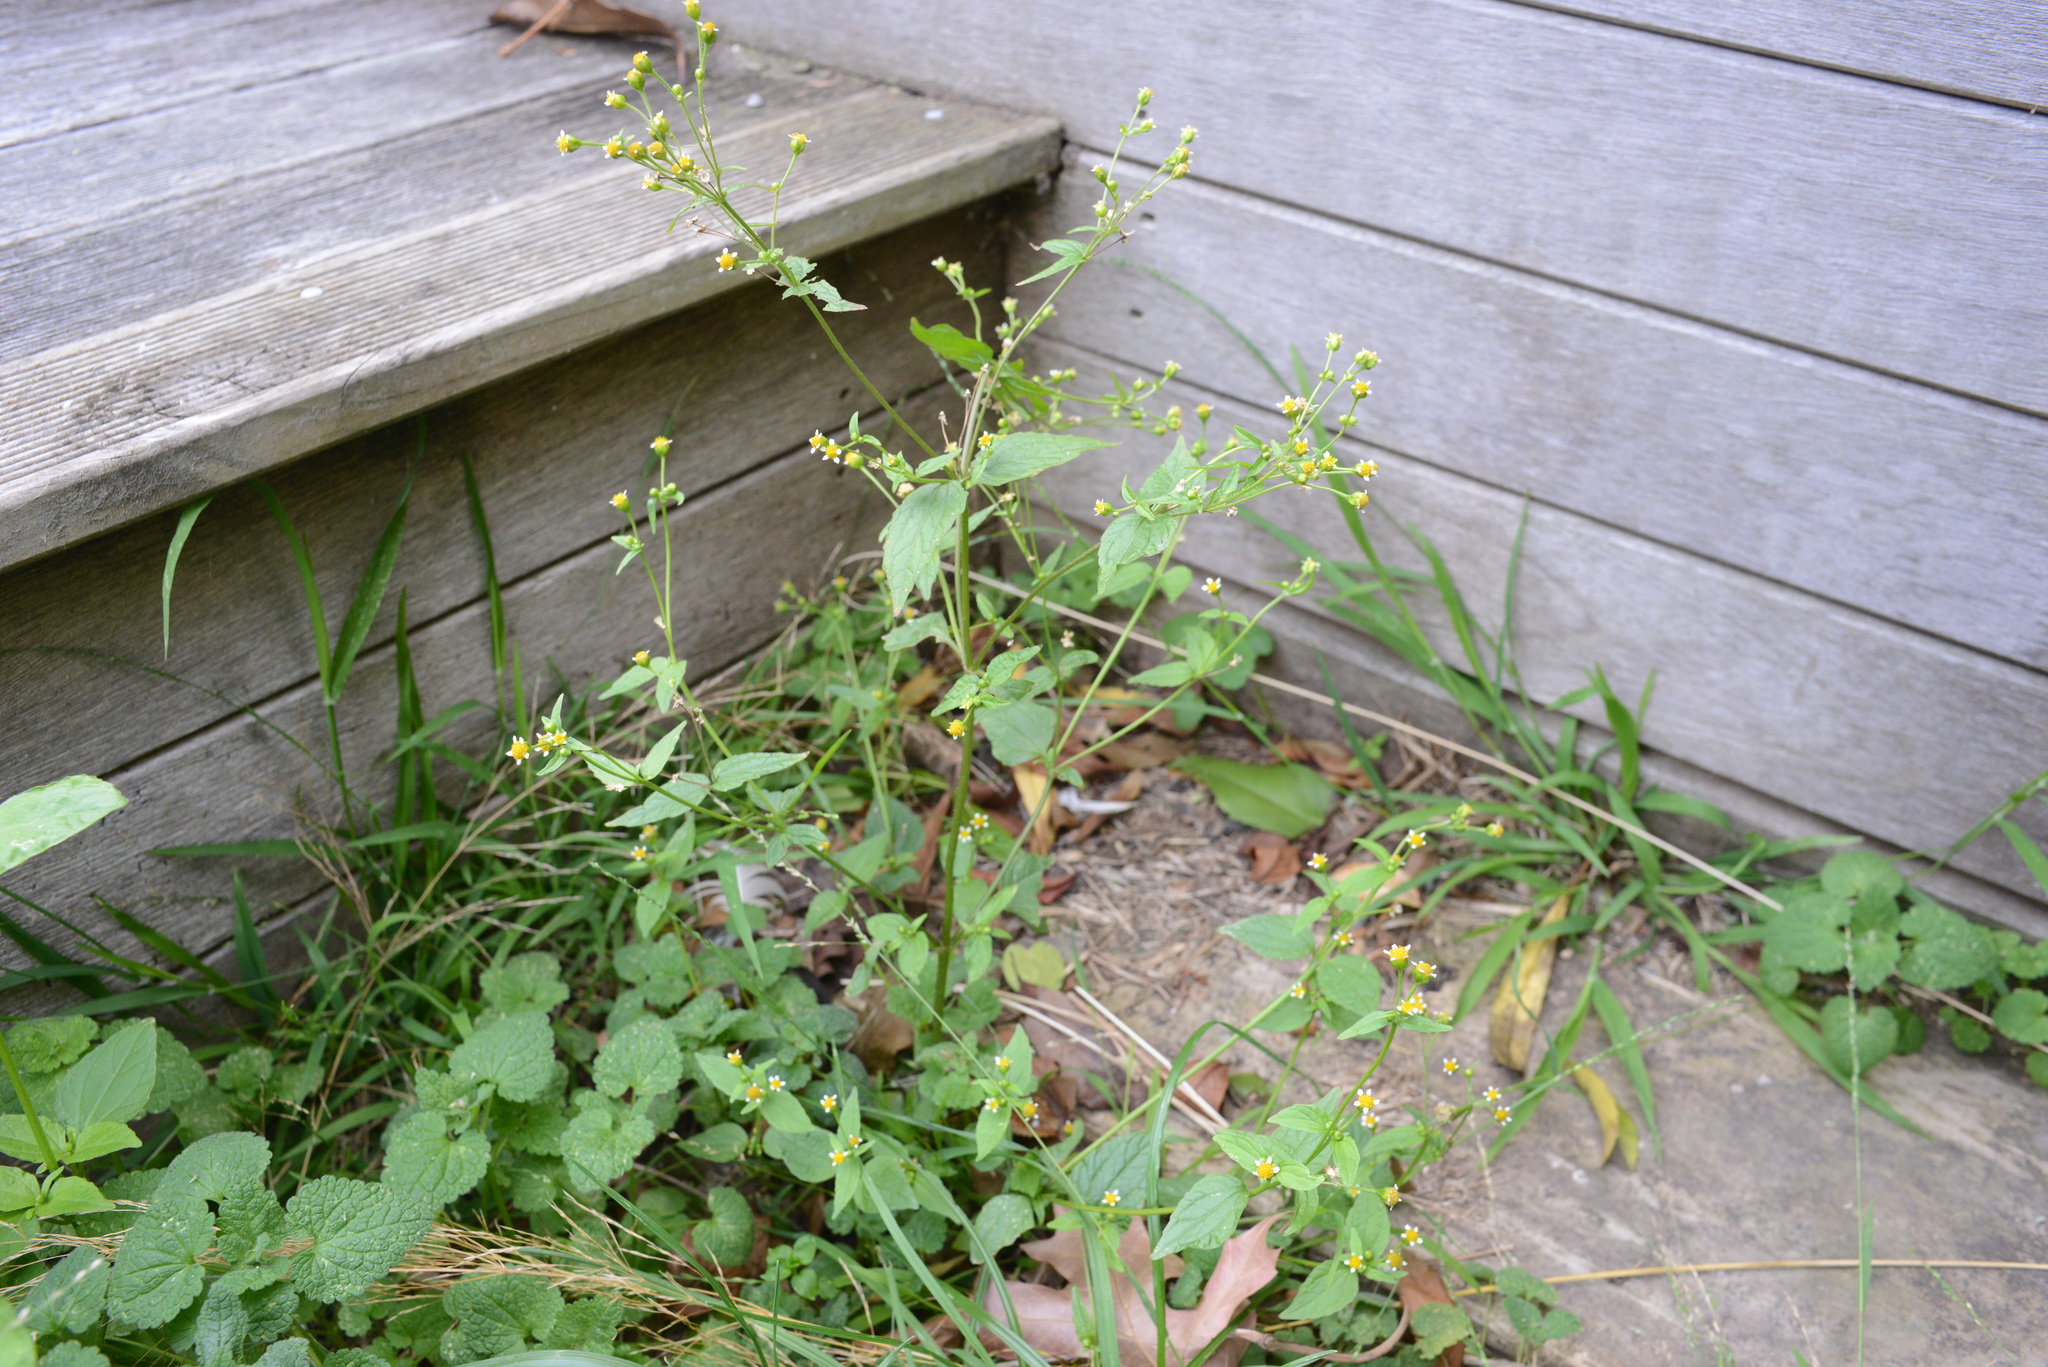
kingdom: Plantae
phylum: Tracheophyta
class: Magnoliopsida
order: Asterales
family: Asteraceae
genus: Galinsoga
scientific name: Galinsoga parviflora
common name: Gallant soldier
